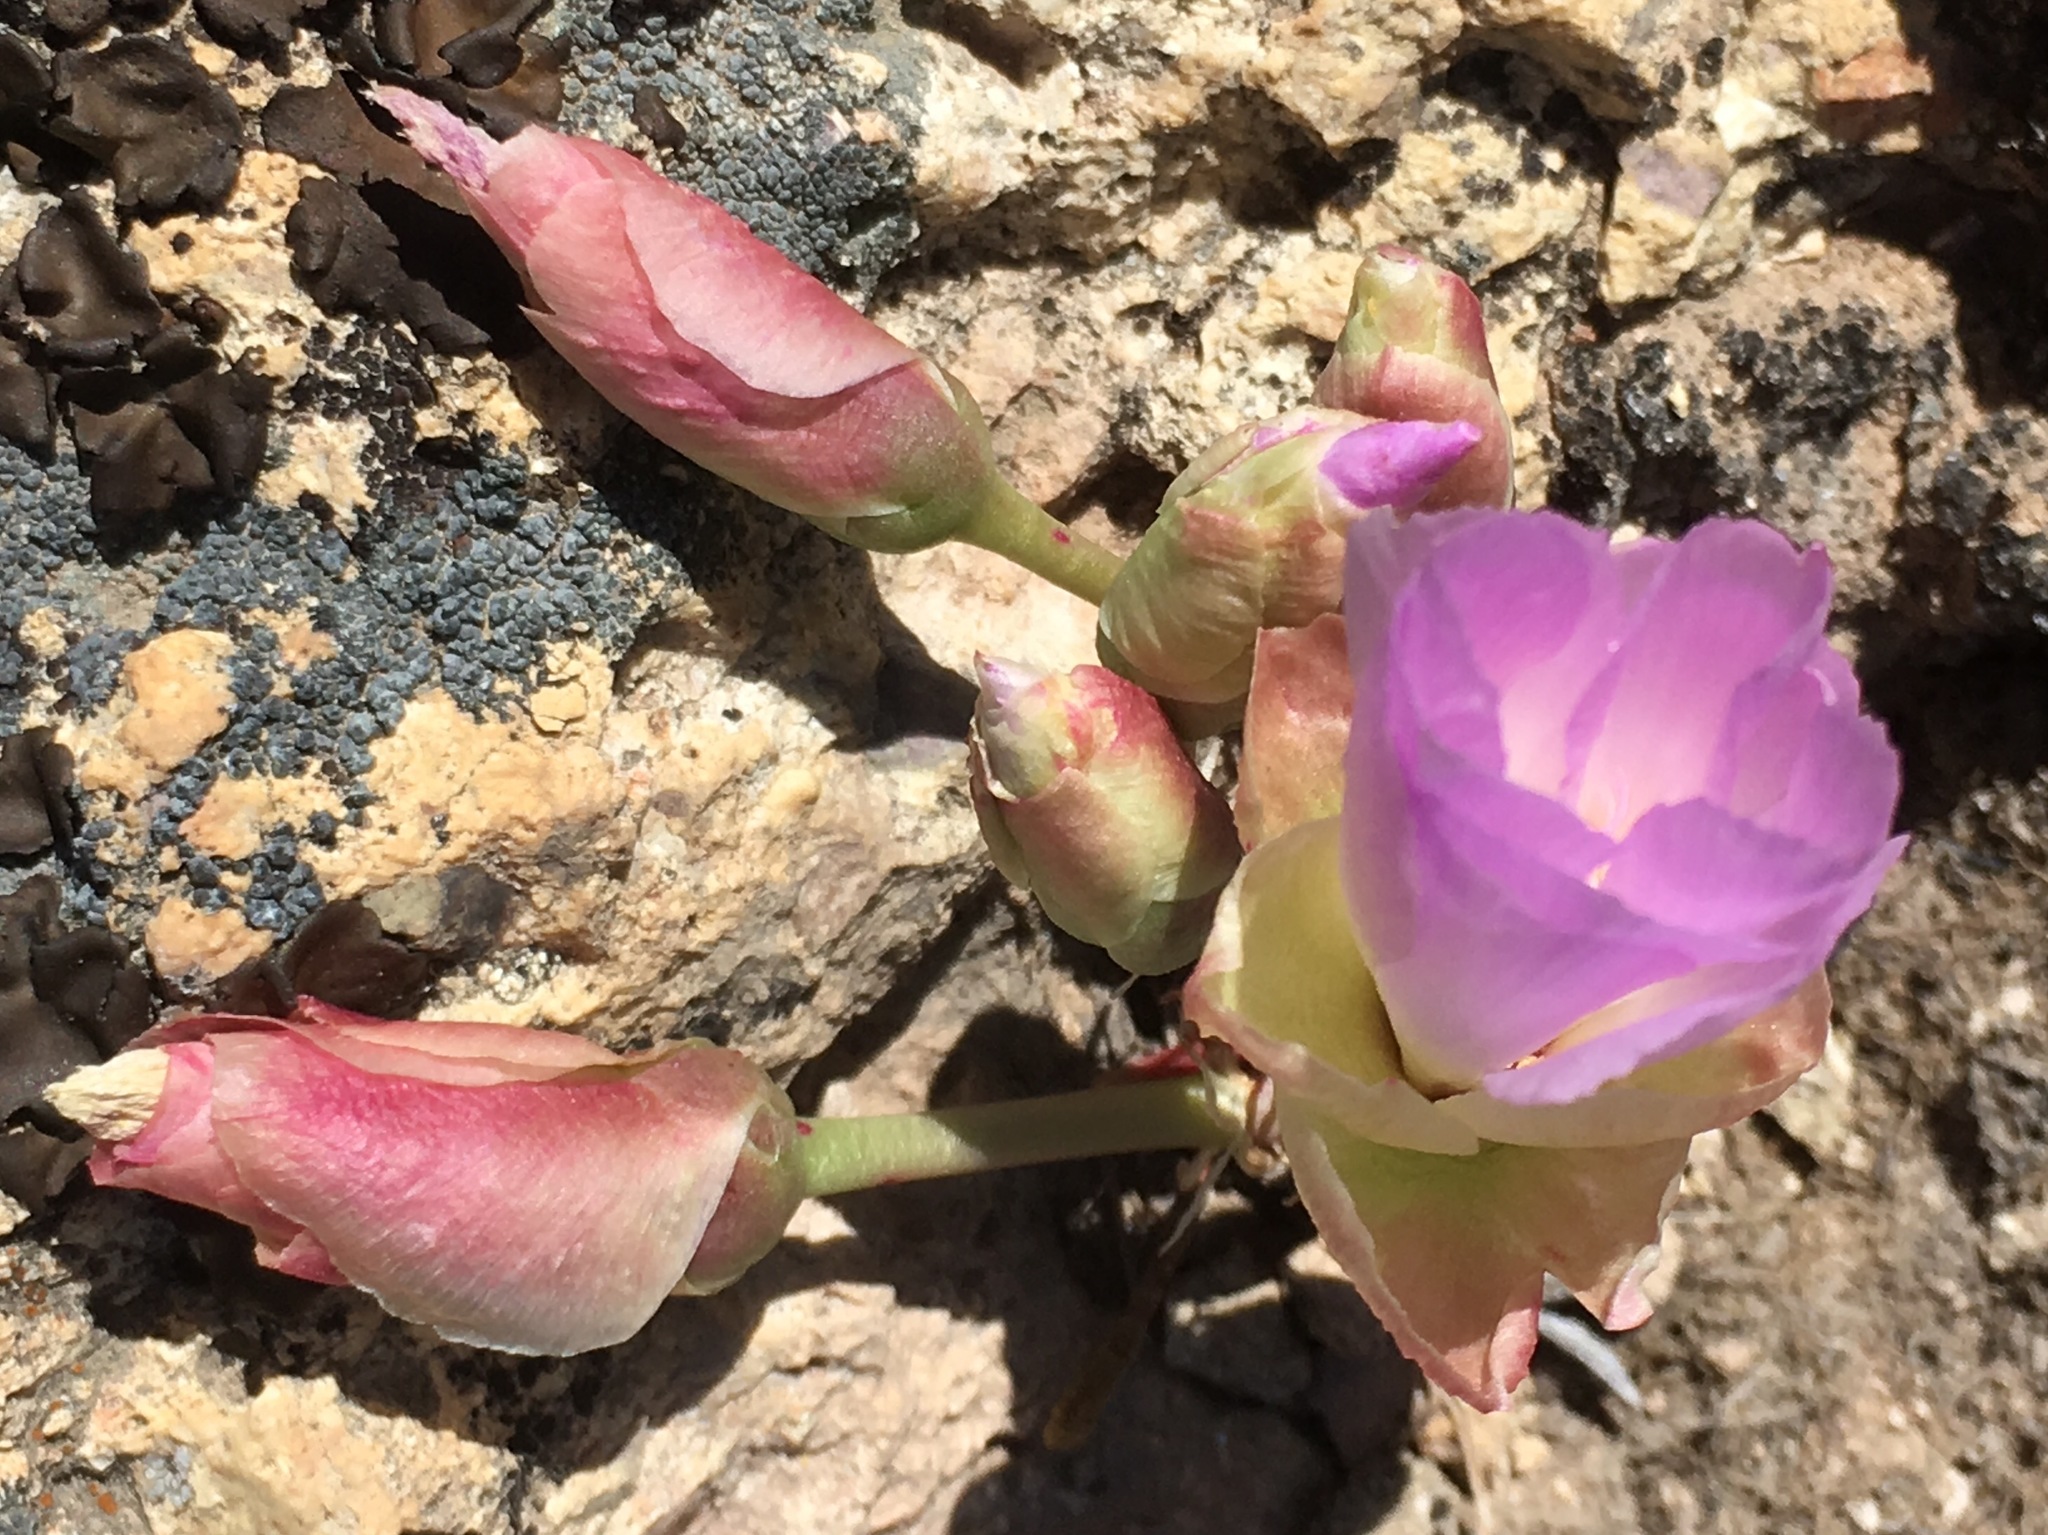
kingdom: Plantae
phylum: Tracheophyta
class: Magnoliopsida
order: Caryophyllales
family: Montiaceae
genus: Lewisia
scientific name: Lewisia rediviva
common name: Bitter-root
